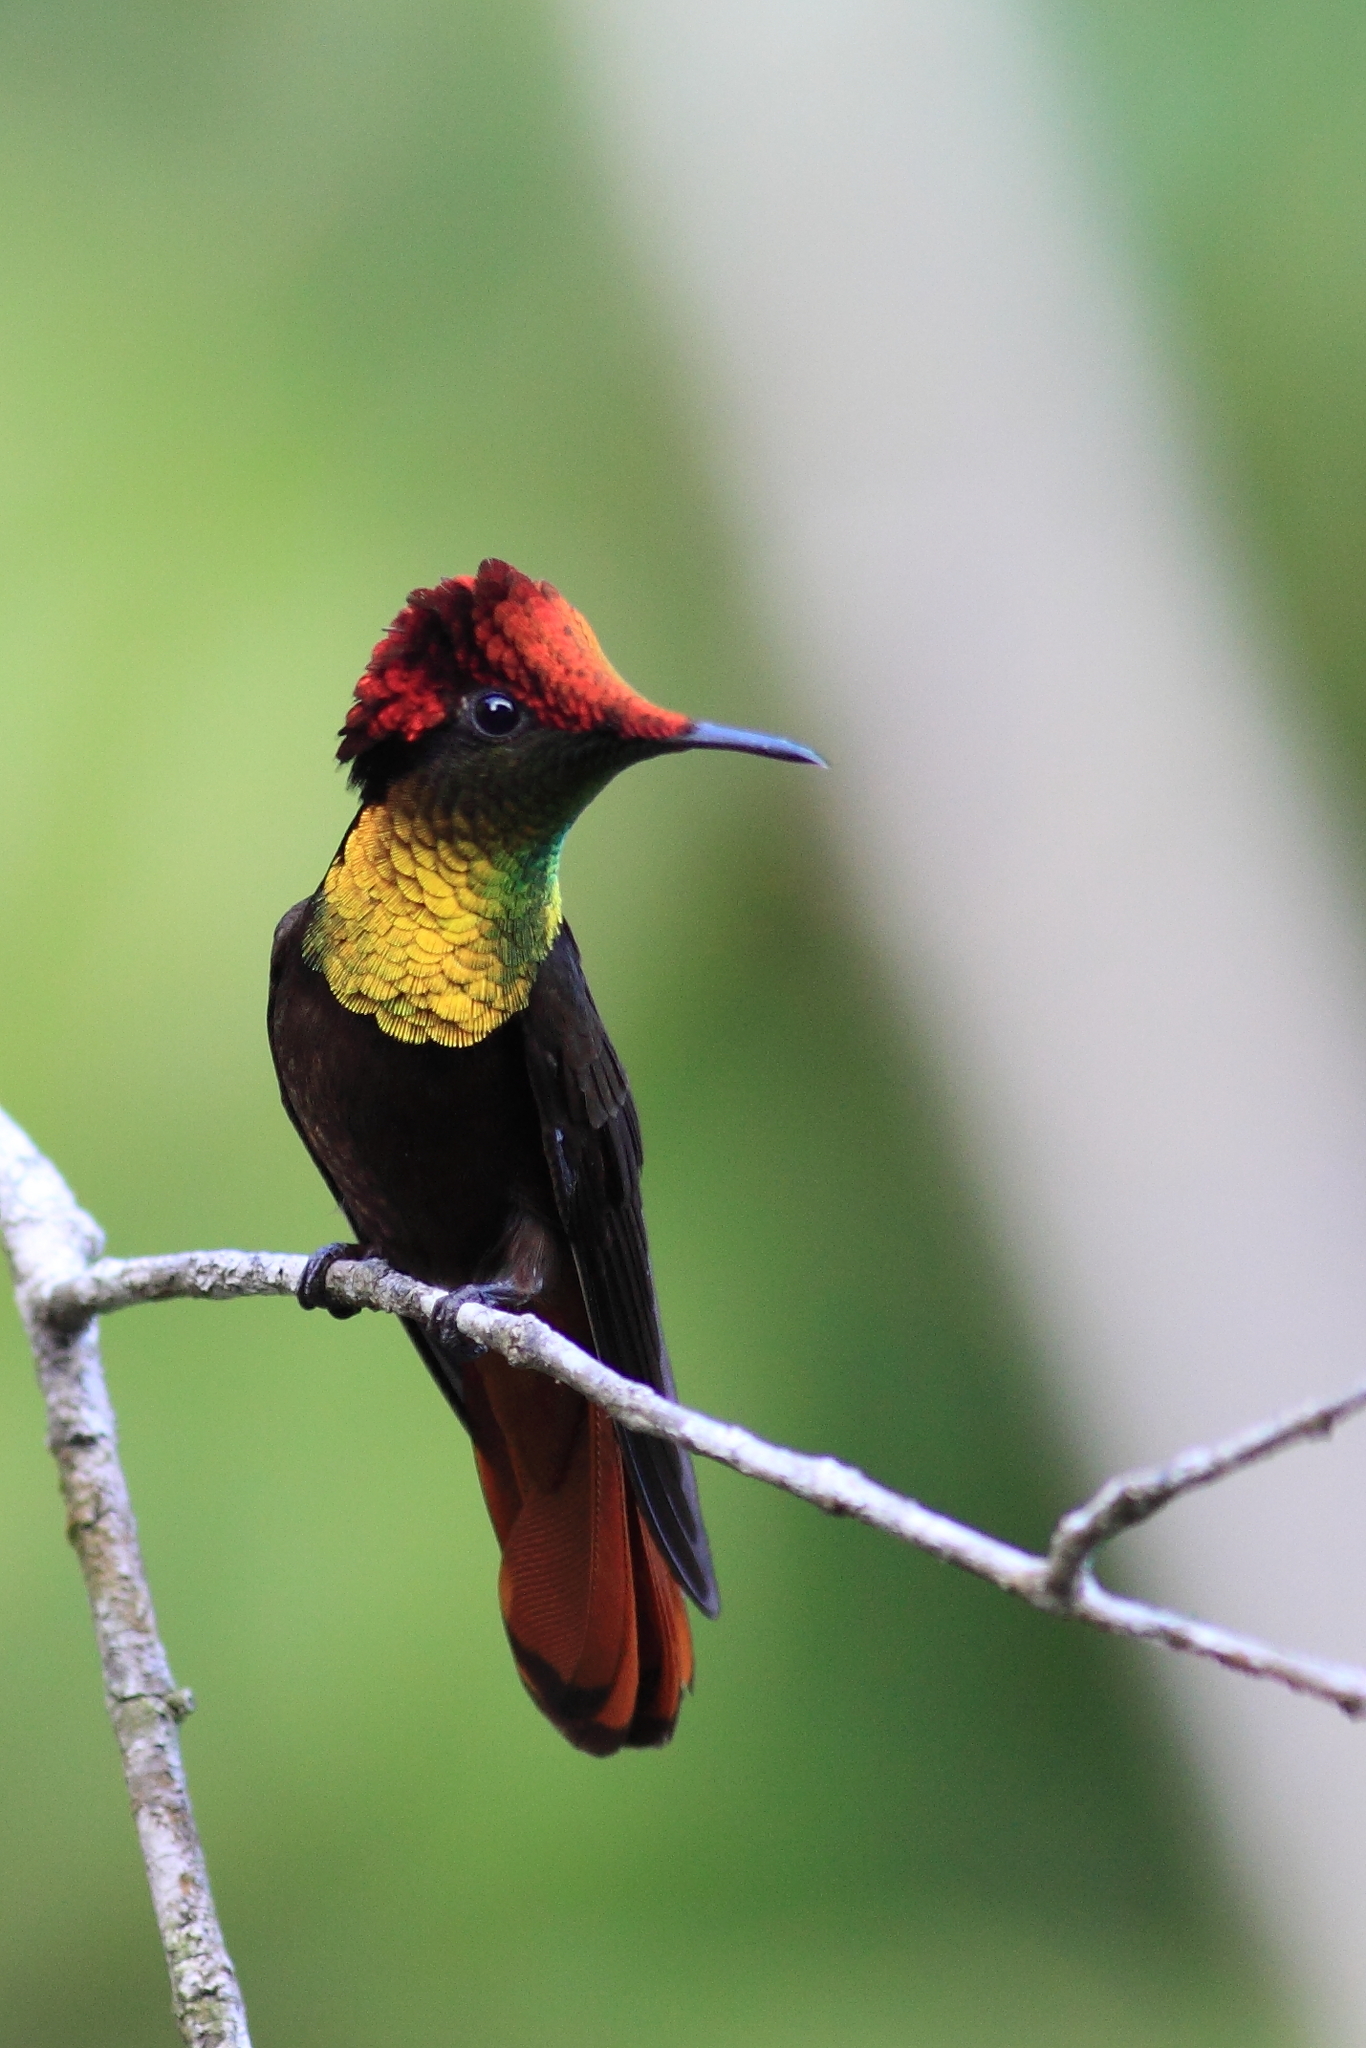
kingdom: Animalia
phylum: Chordata
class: Aves
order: Apodiformes
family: Trochilidae
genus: Chrysolampis
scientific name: Chrysolampis mosquitus
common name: Ruby-topaz hummingbird
